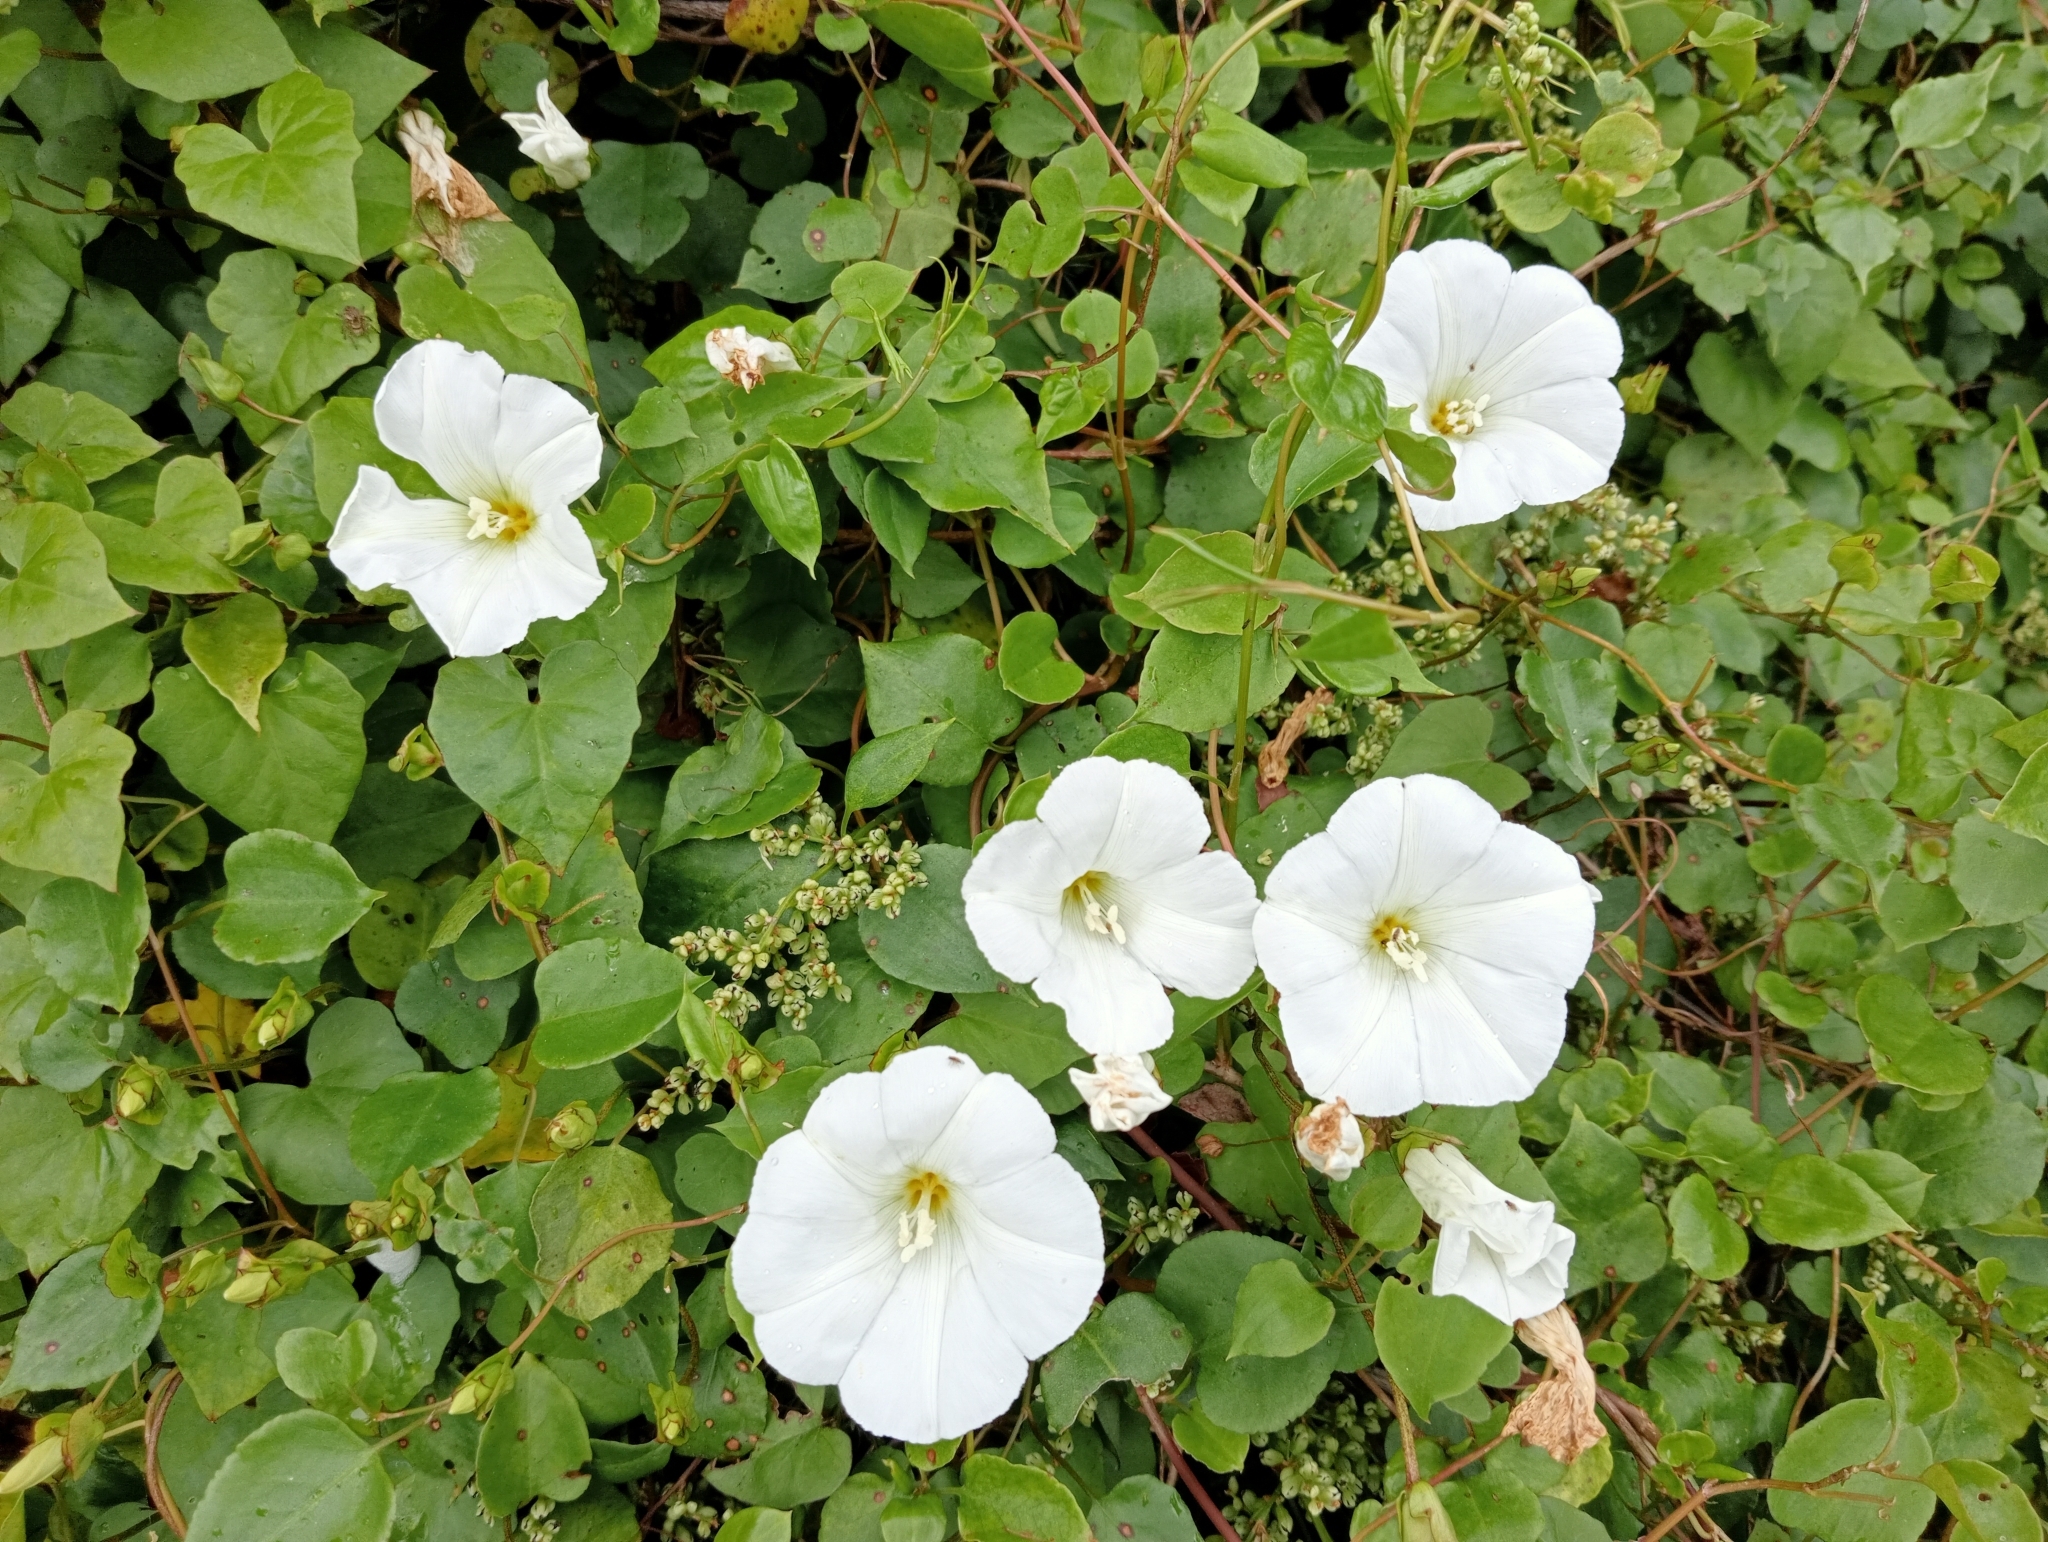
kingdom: Plantae
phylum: Tracheophyta
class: Magnoliopsida
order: Solanales
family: Convolvulaceae
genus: Calystegia
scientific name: Calystegia tuguriorum
